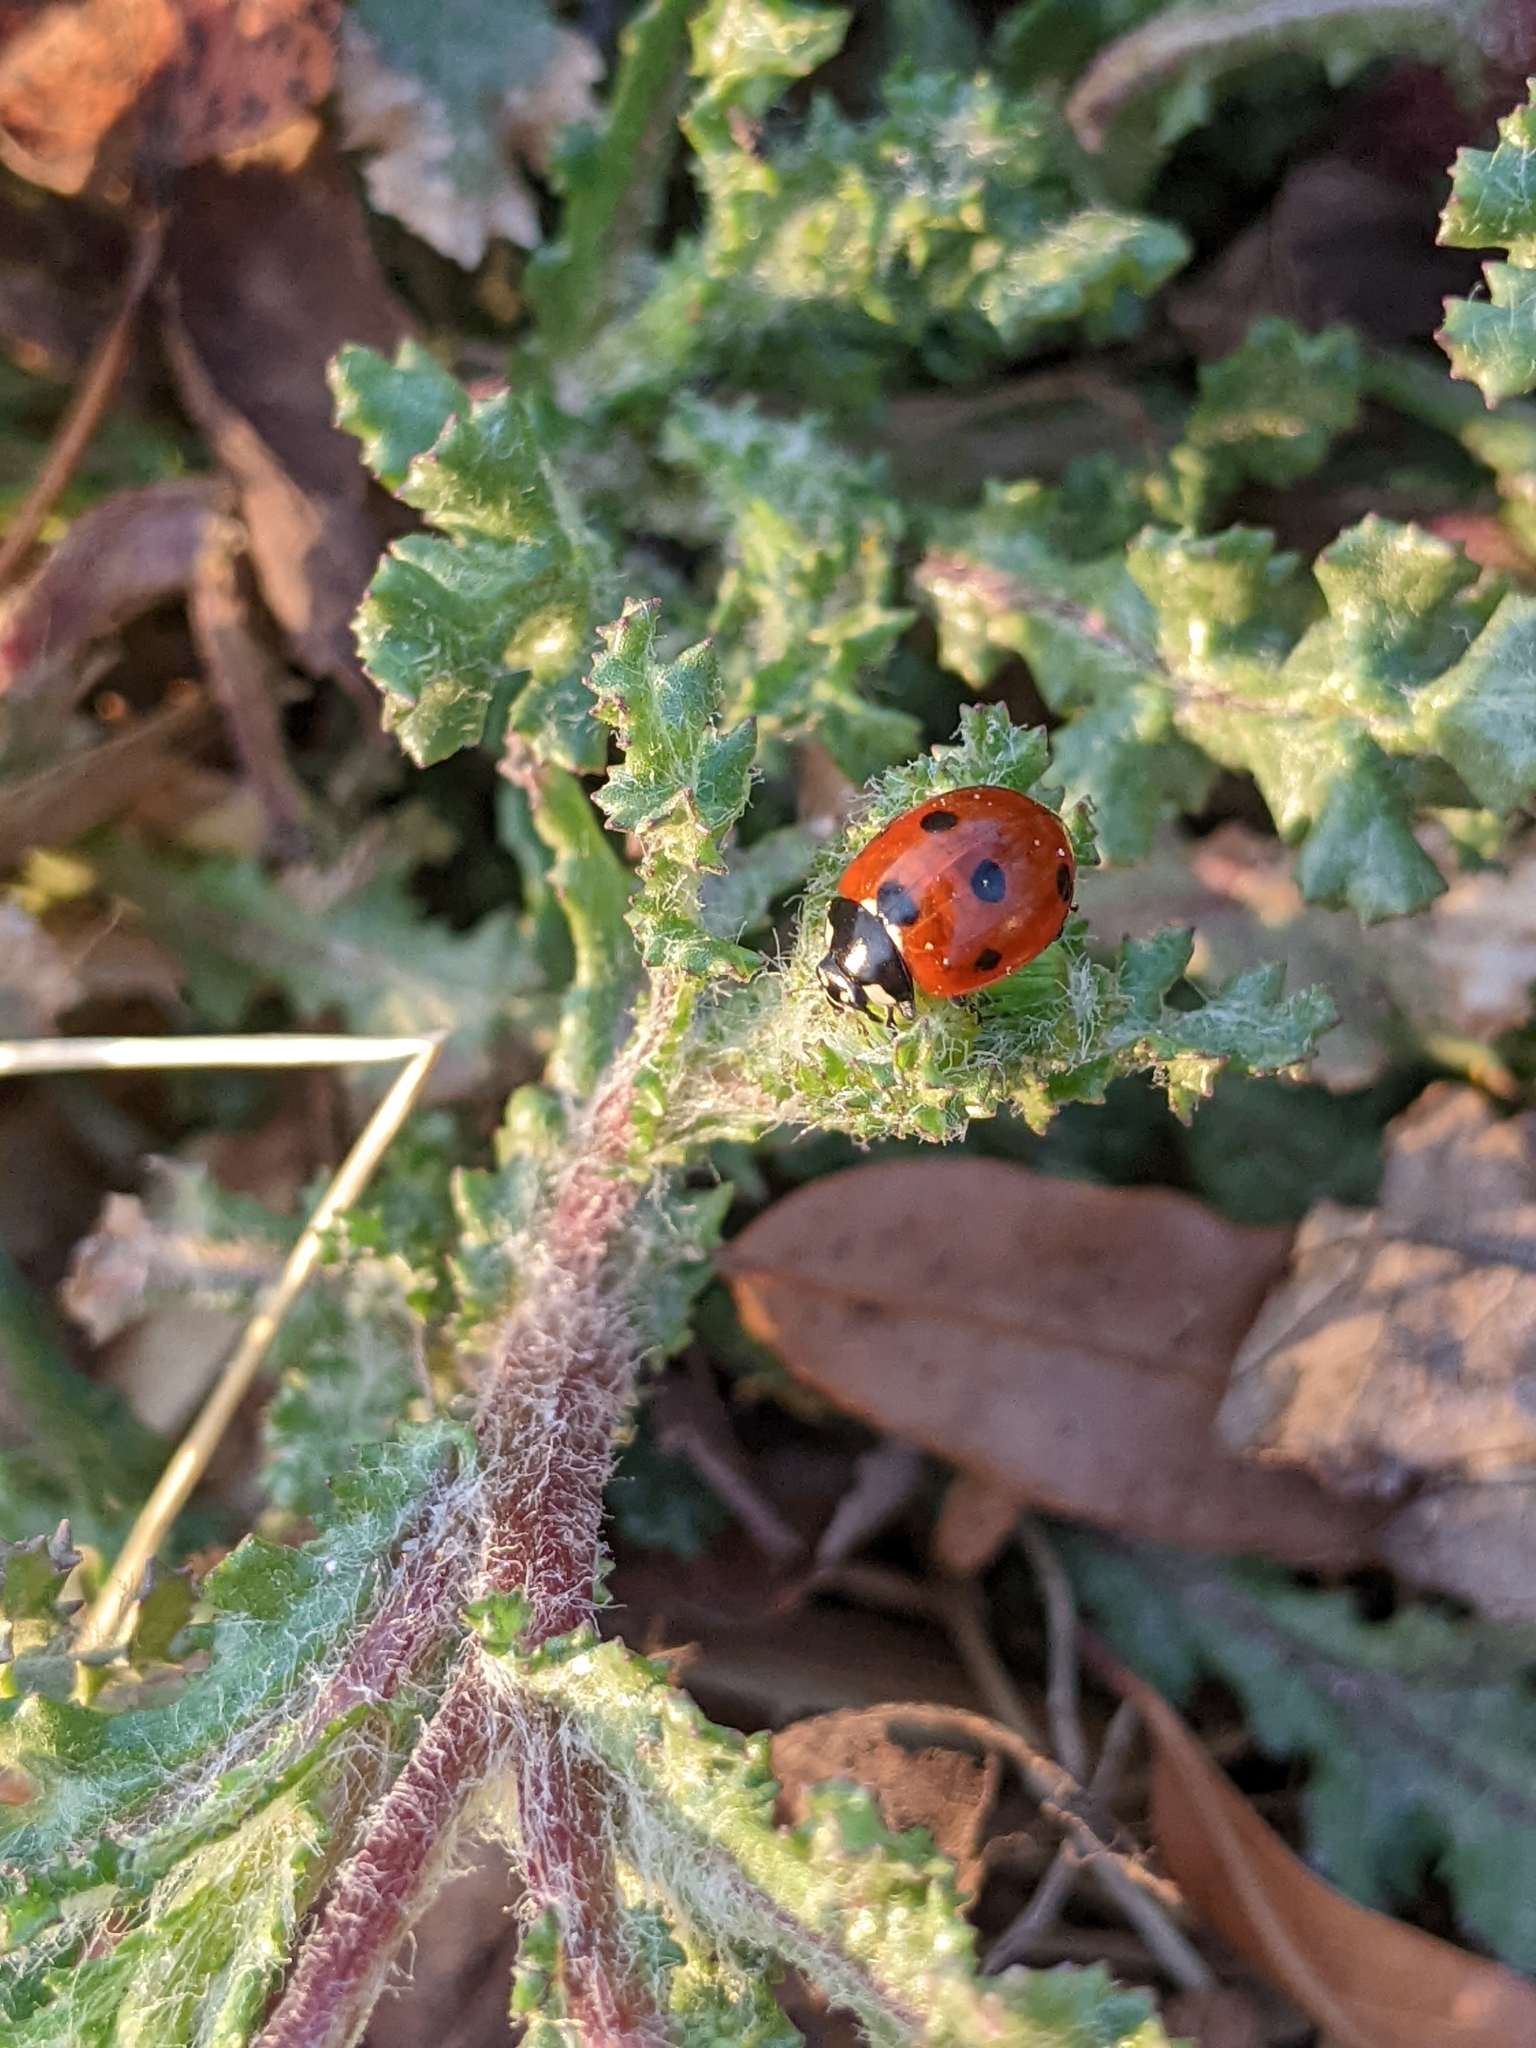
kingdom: Animalia
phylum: Arthropoda
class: Insecta
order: Coleoptera
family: Coccinellidae
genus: Coccinella
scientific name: Coccinella septempunctata
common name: Sevenspotted lady beetle
